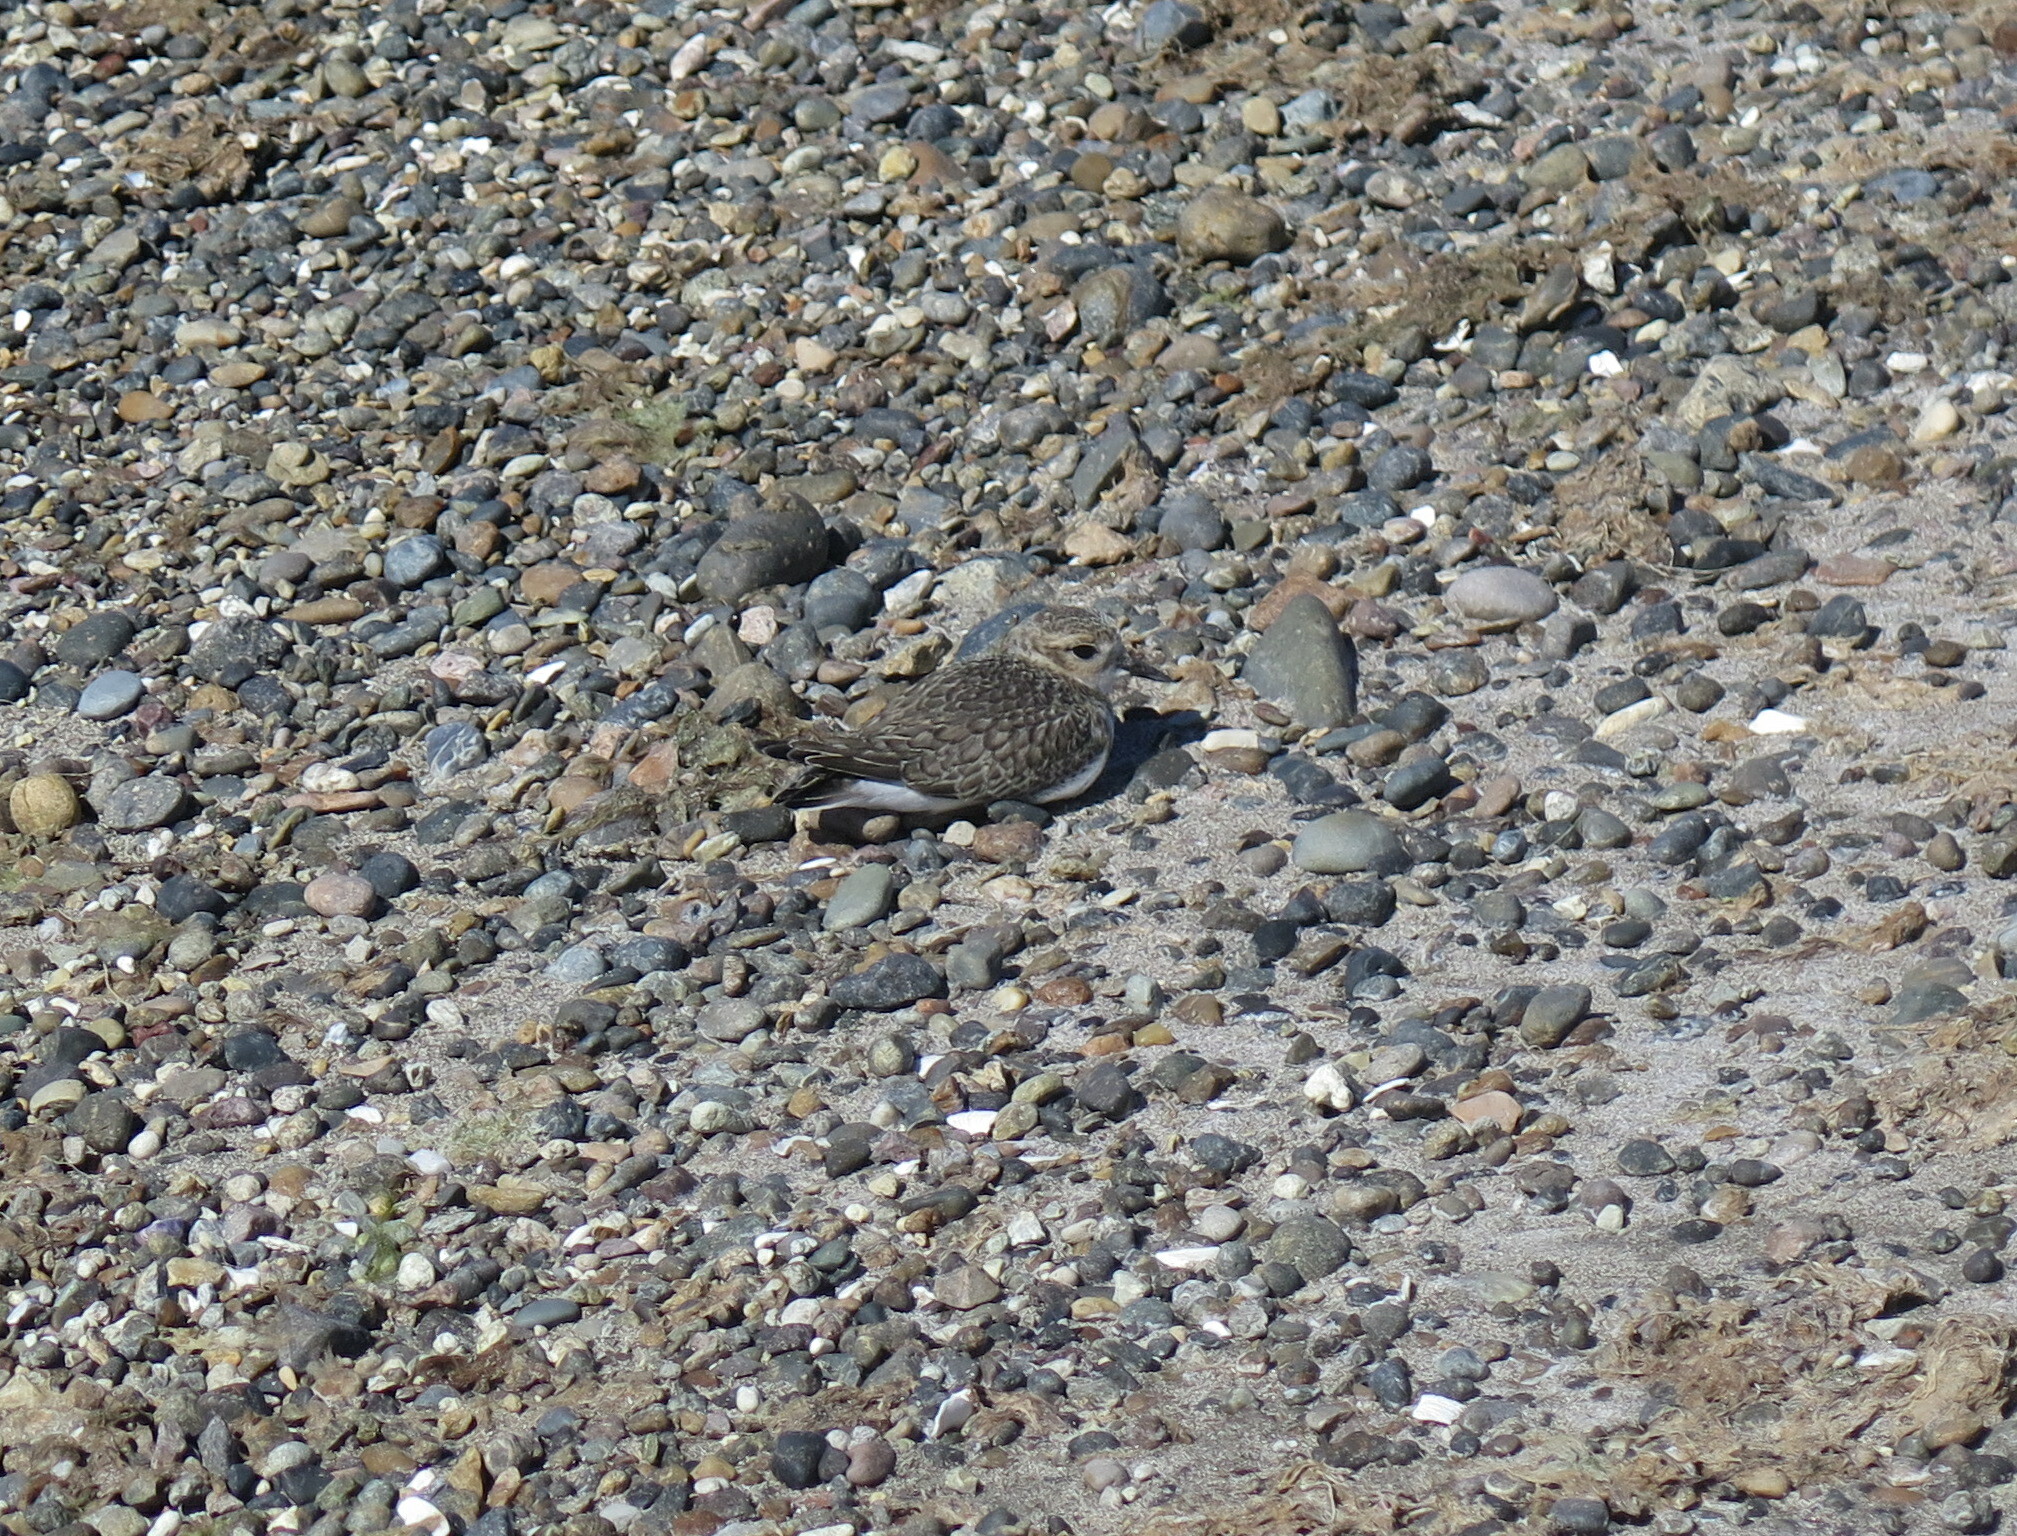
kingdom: Animalia
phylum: Chordata
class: Aves
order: Charadriiformes
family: Charadriidae
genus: Anarhynchus
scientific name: Anarhynchus
